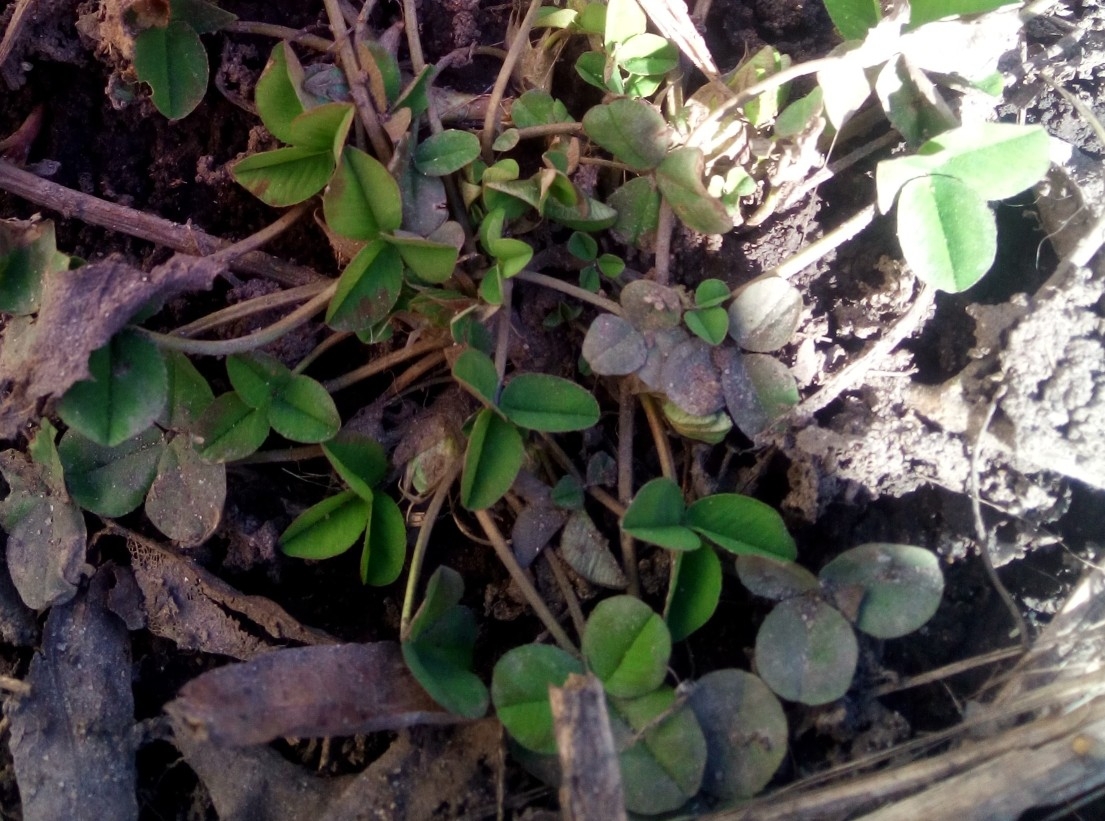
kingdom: Plantae
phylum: Tracheophyta
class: Magnoliopsida
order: Fabales
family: Fabaceae
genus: Trifolium
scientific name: Trifolium pratense
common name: Red clover
